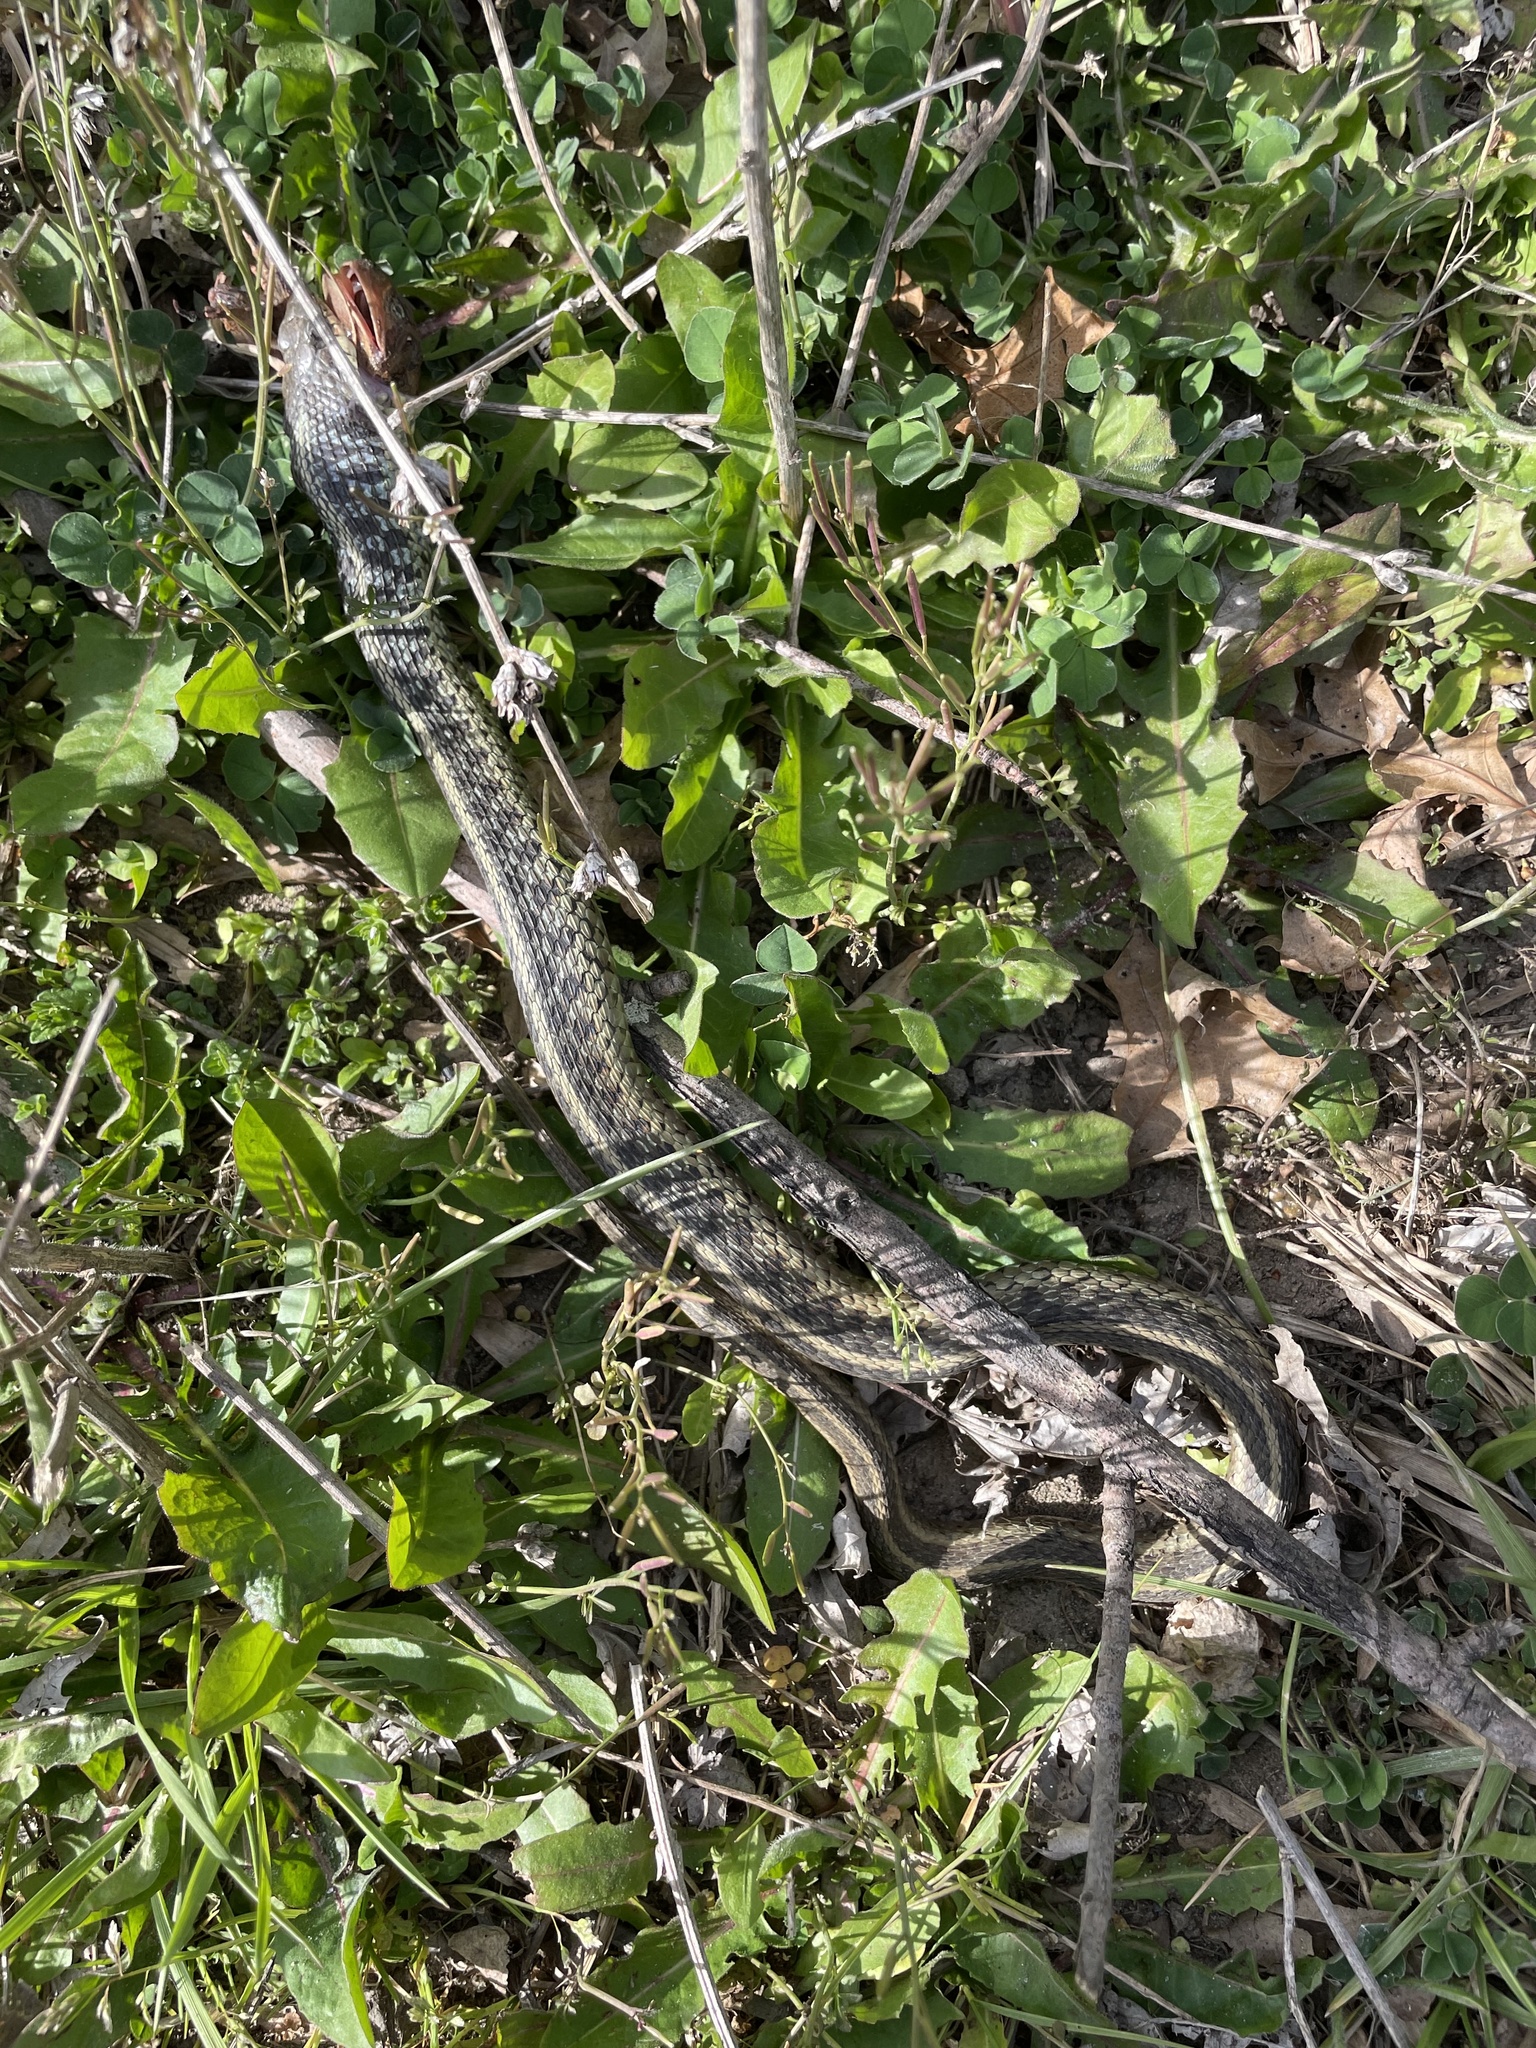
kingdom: Animalia
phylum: Chordata
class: Squamata
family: Colubridae
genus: Thamnophis
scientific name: Thamnophis sirtalis
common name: Common garter snake
